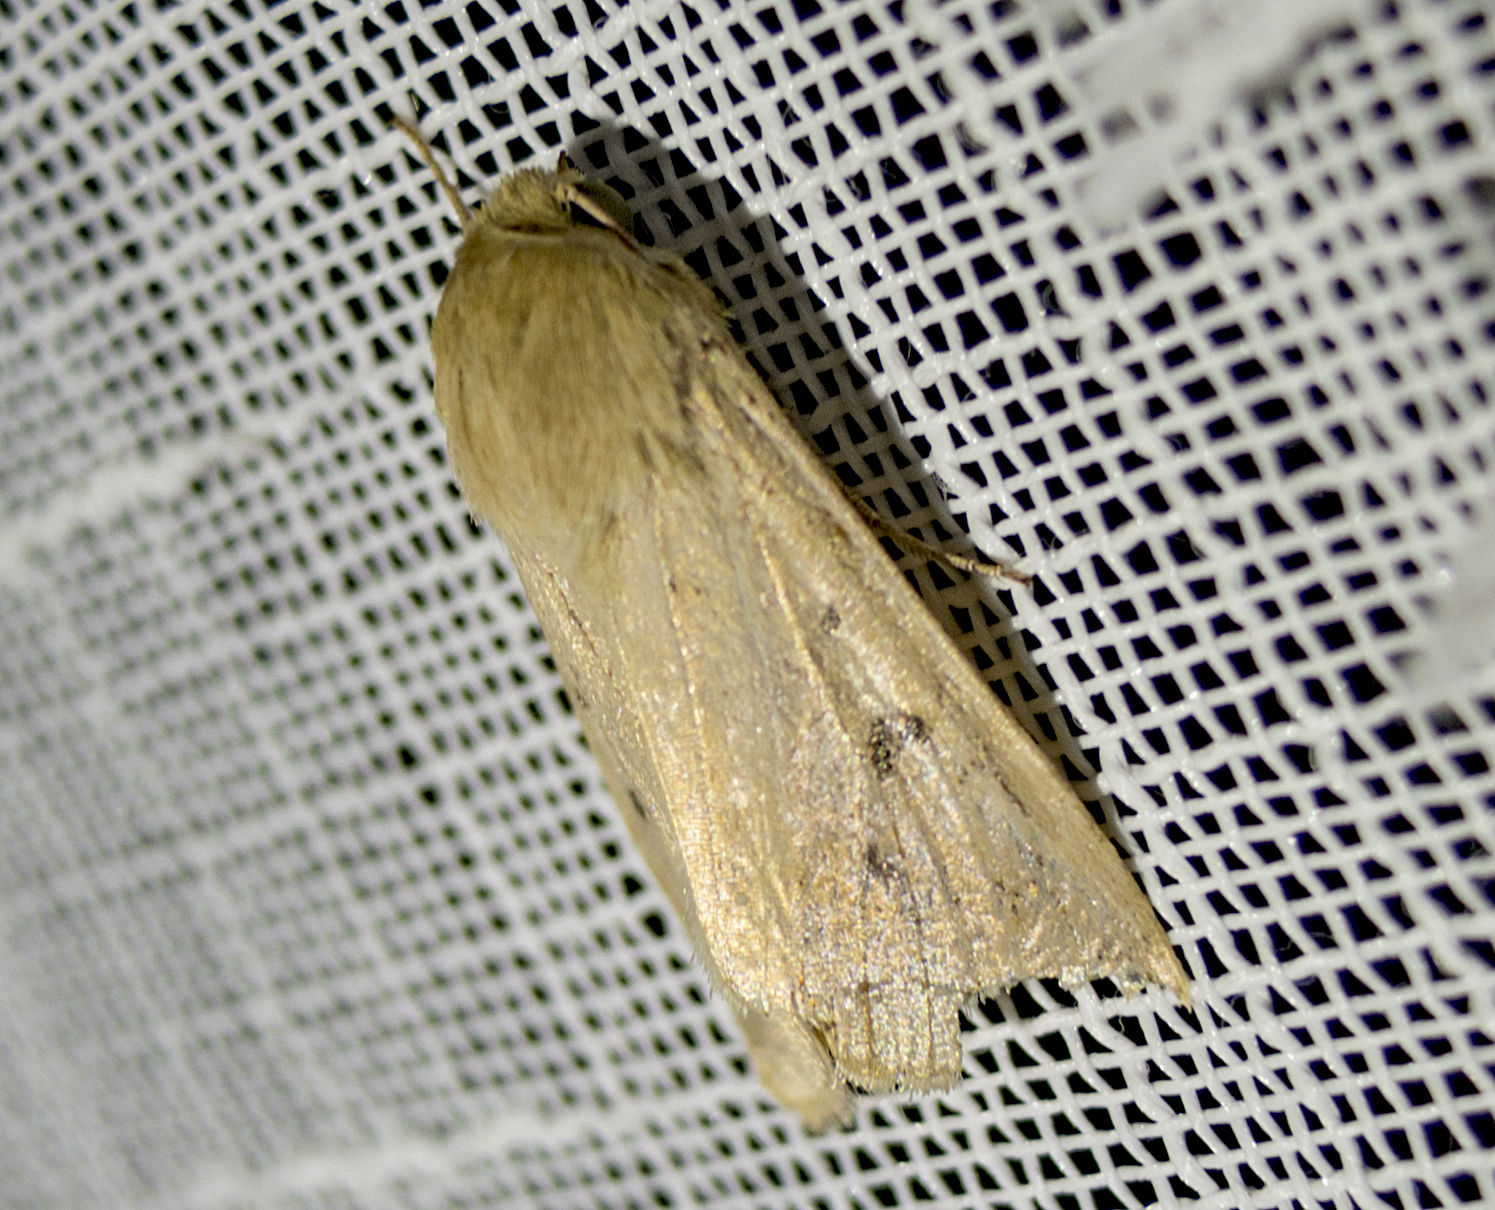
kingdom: Animalia
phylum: Arthropoda
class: Insecta
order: Lepidoptera
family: Noctuidae
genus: Helicoverpa
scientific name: Helicoverpa armigera
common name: Cotton bollworm
